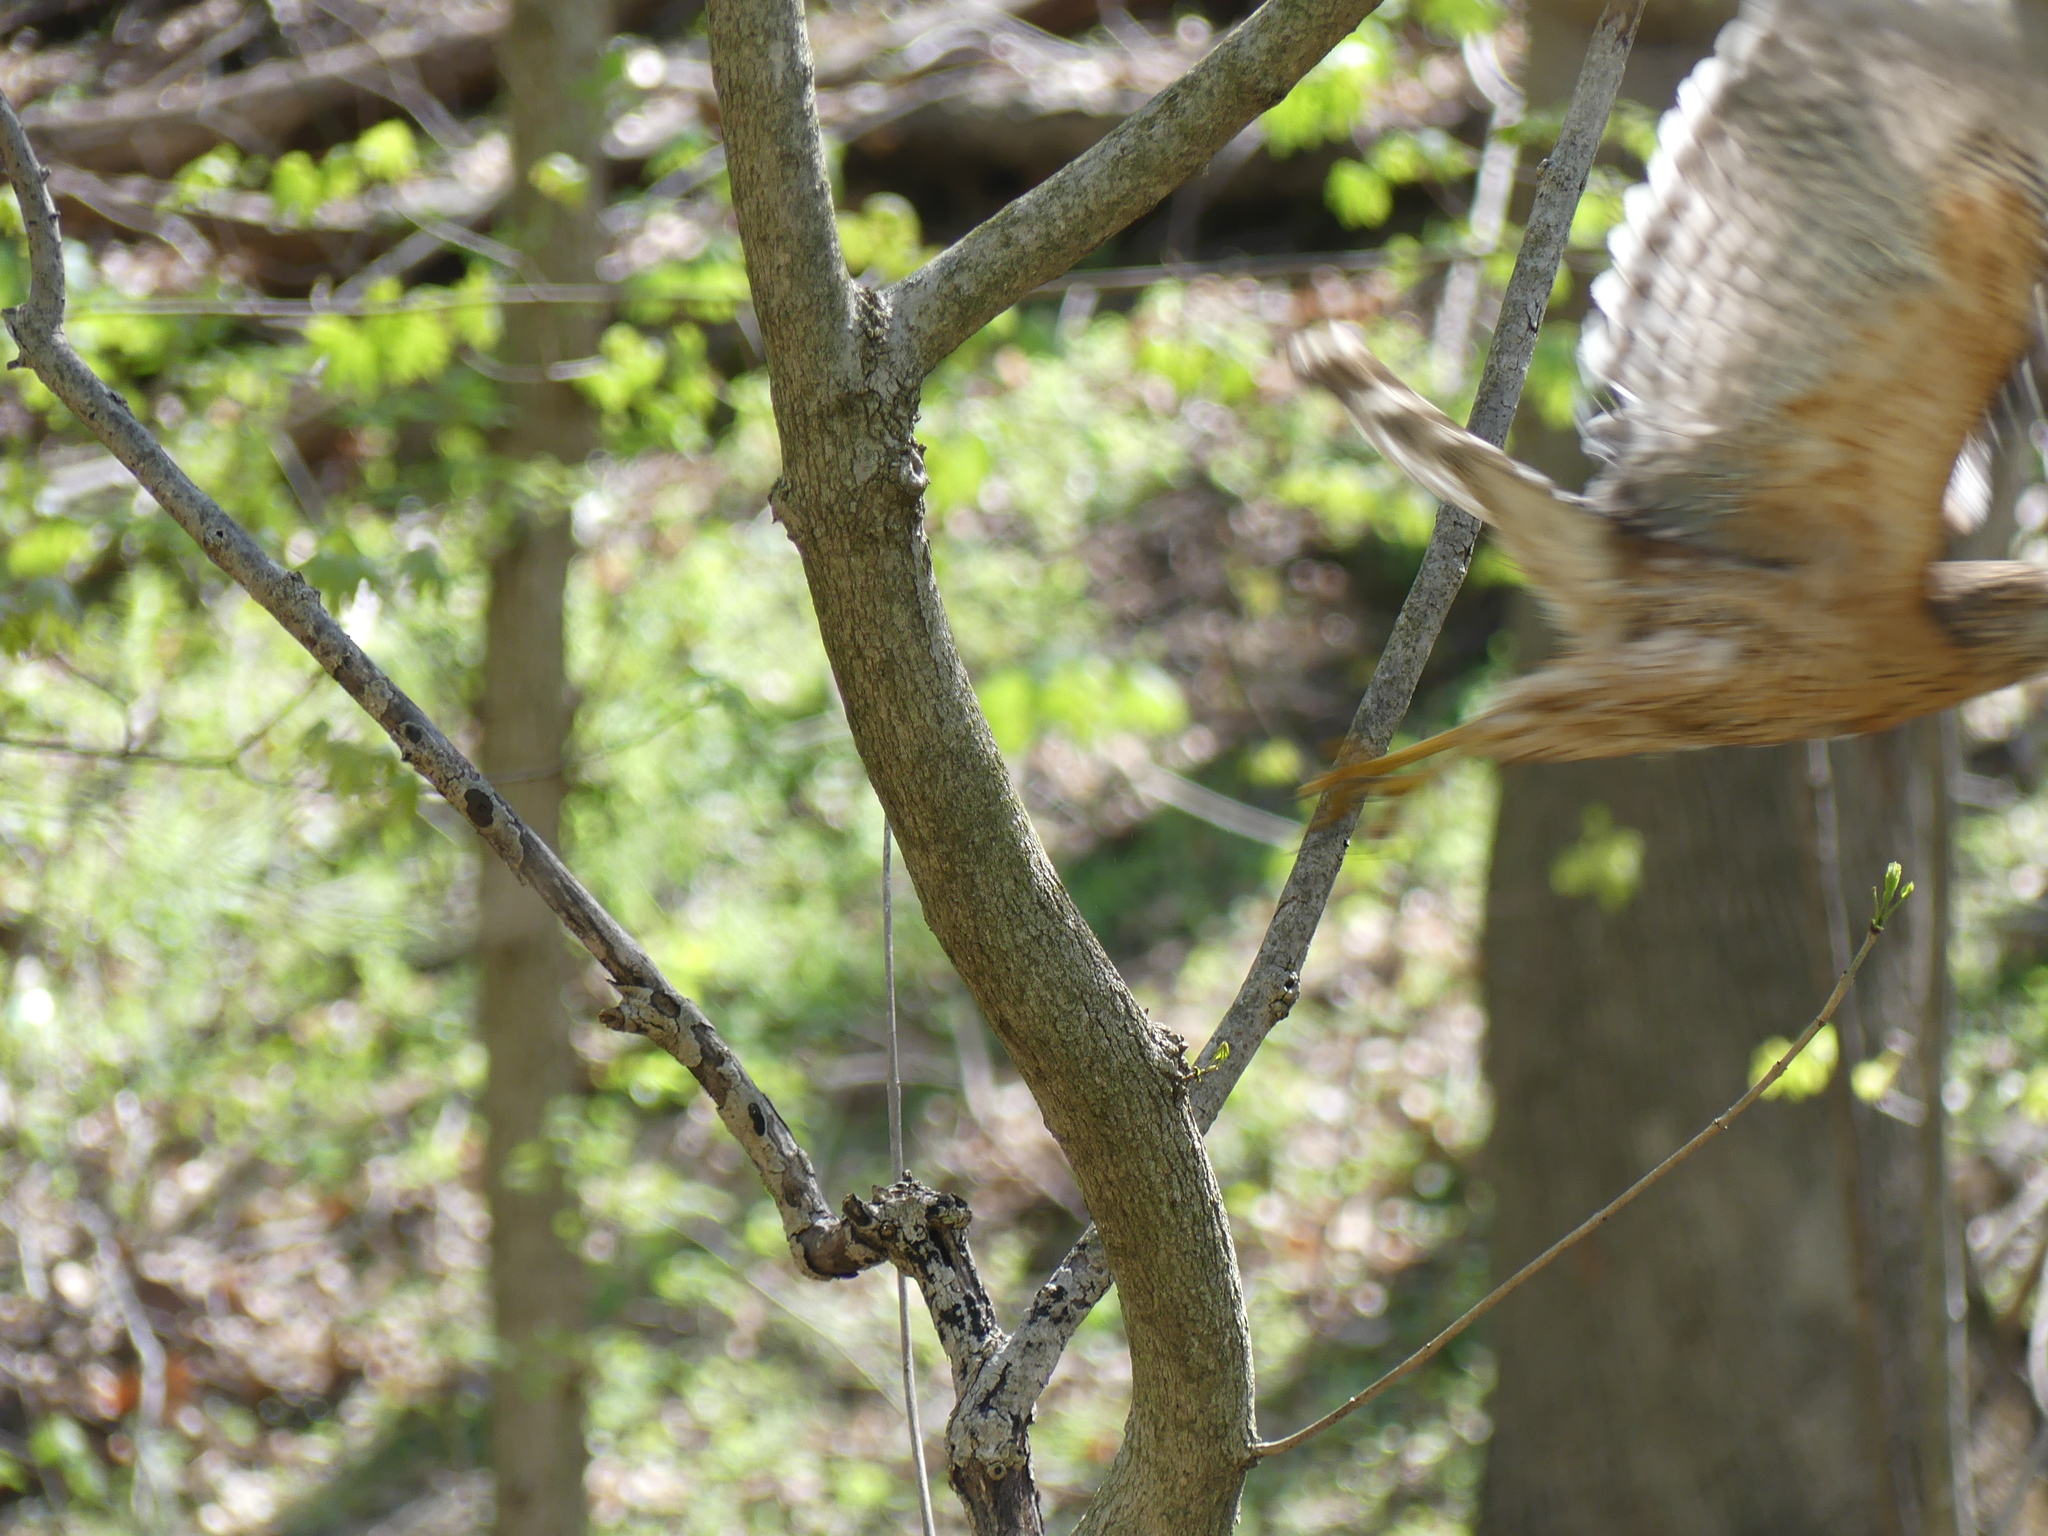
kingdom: Animalia
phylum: Chordata
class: Aves
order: Accipitriformes
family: Accipitridae
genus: Buteo
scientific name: Buteo lineatus
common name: Red-shouldered hawk
